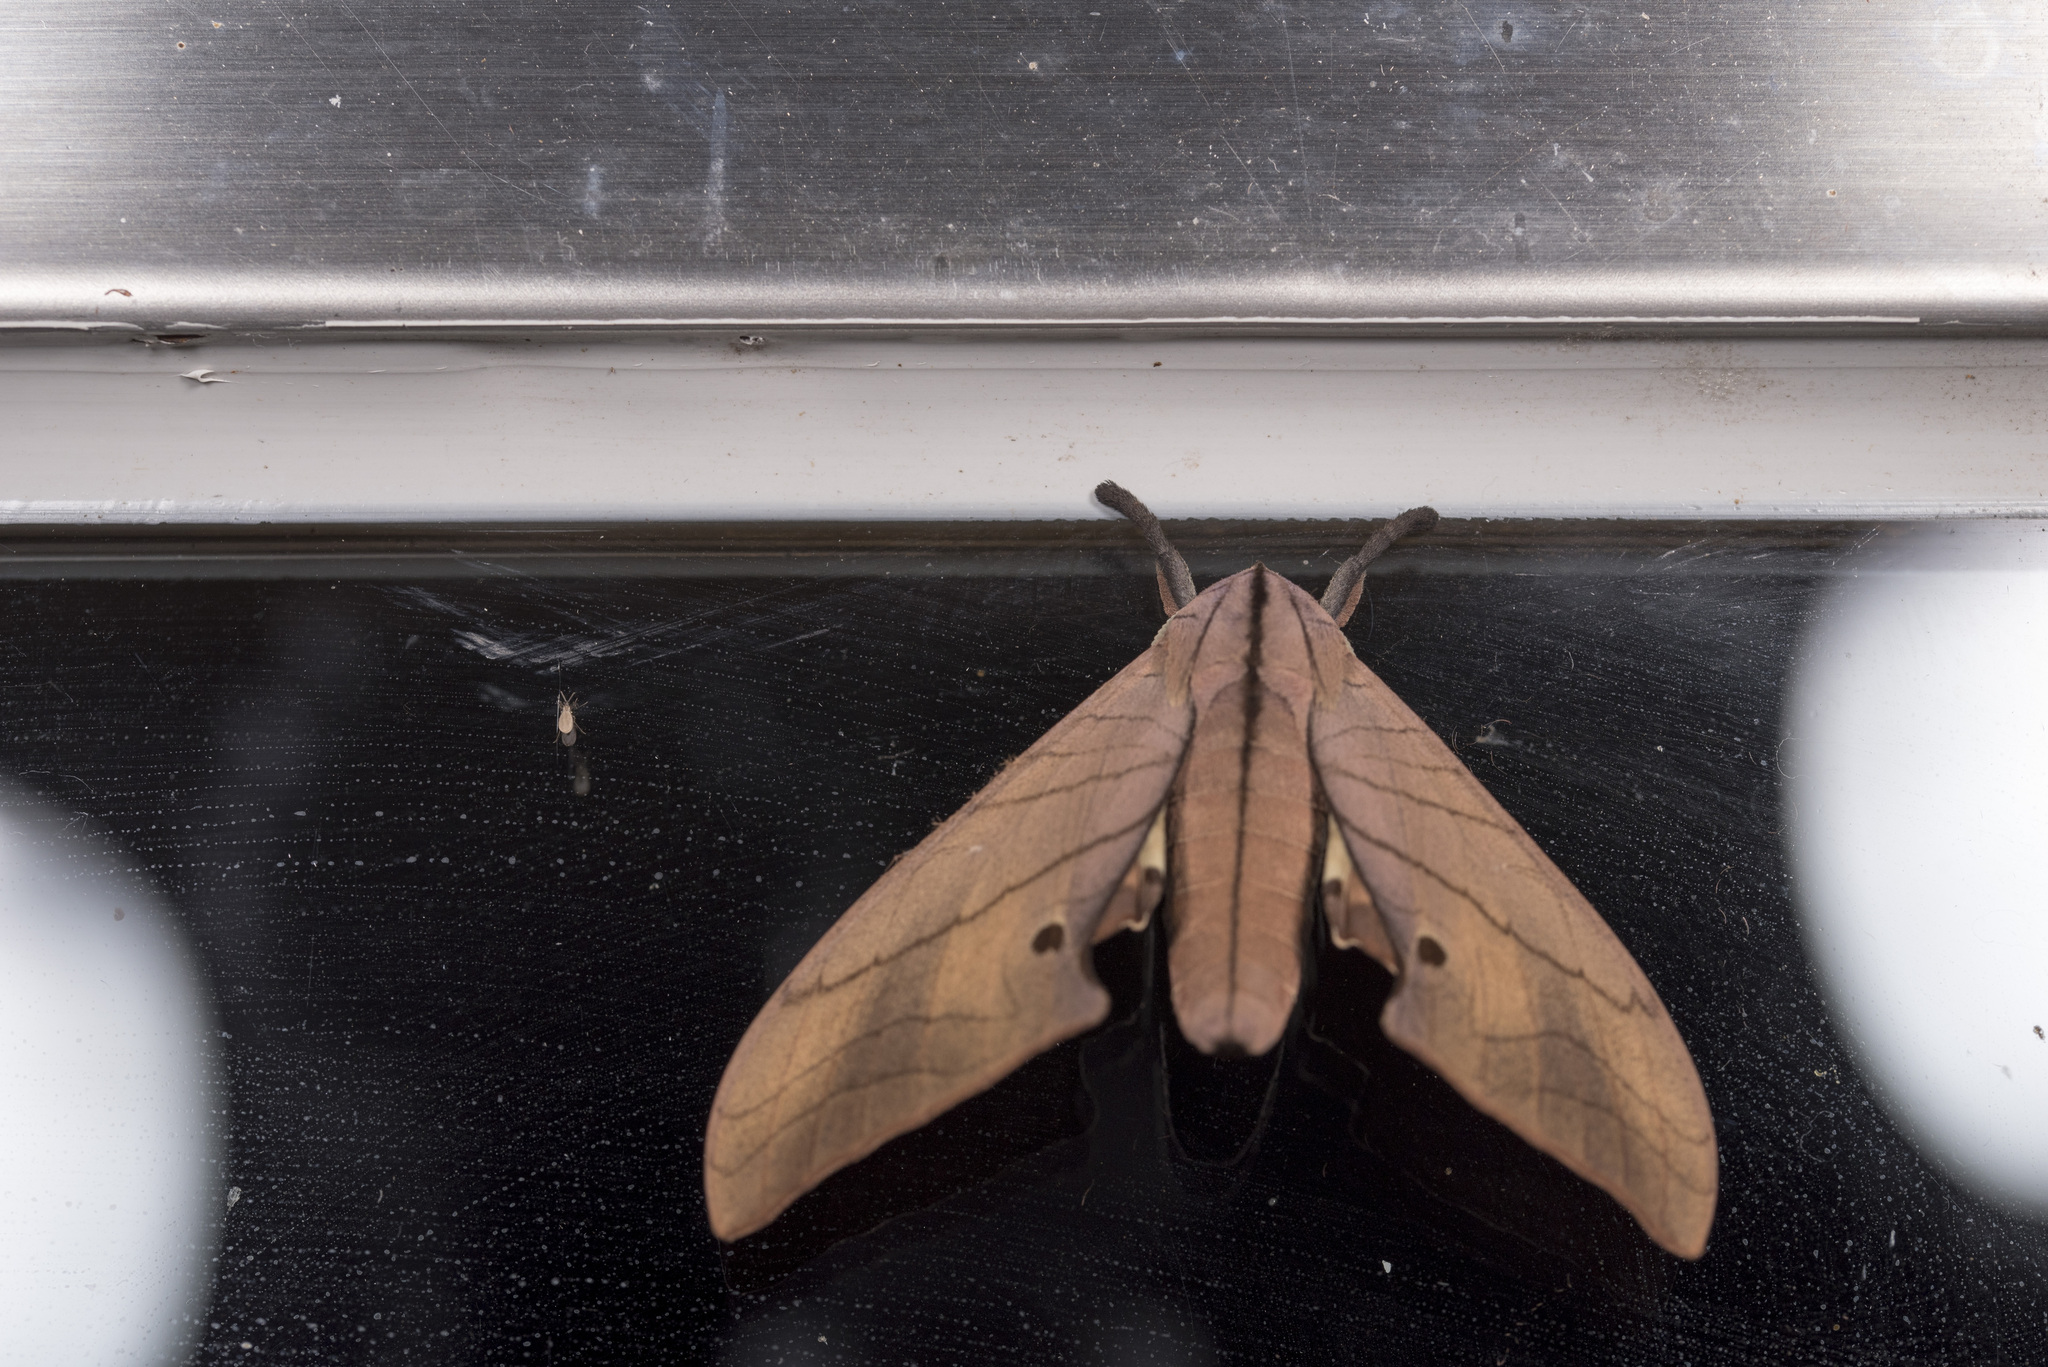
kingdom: Animalia
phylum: Arthropoda
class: Insecta
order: Lepidoptera
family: Sphingidae
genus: Marumba
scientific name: Marumba cristata
